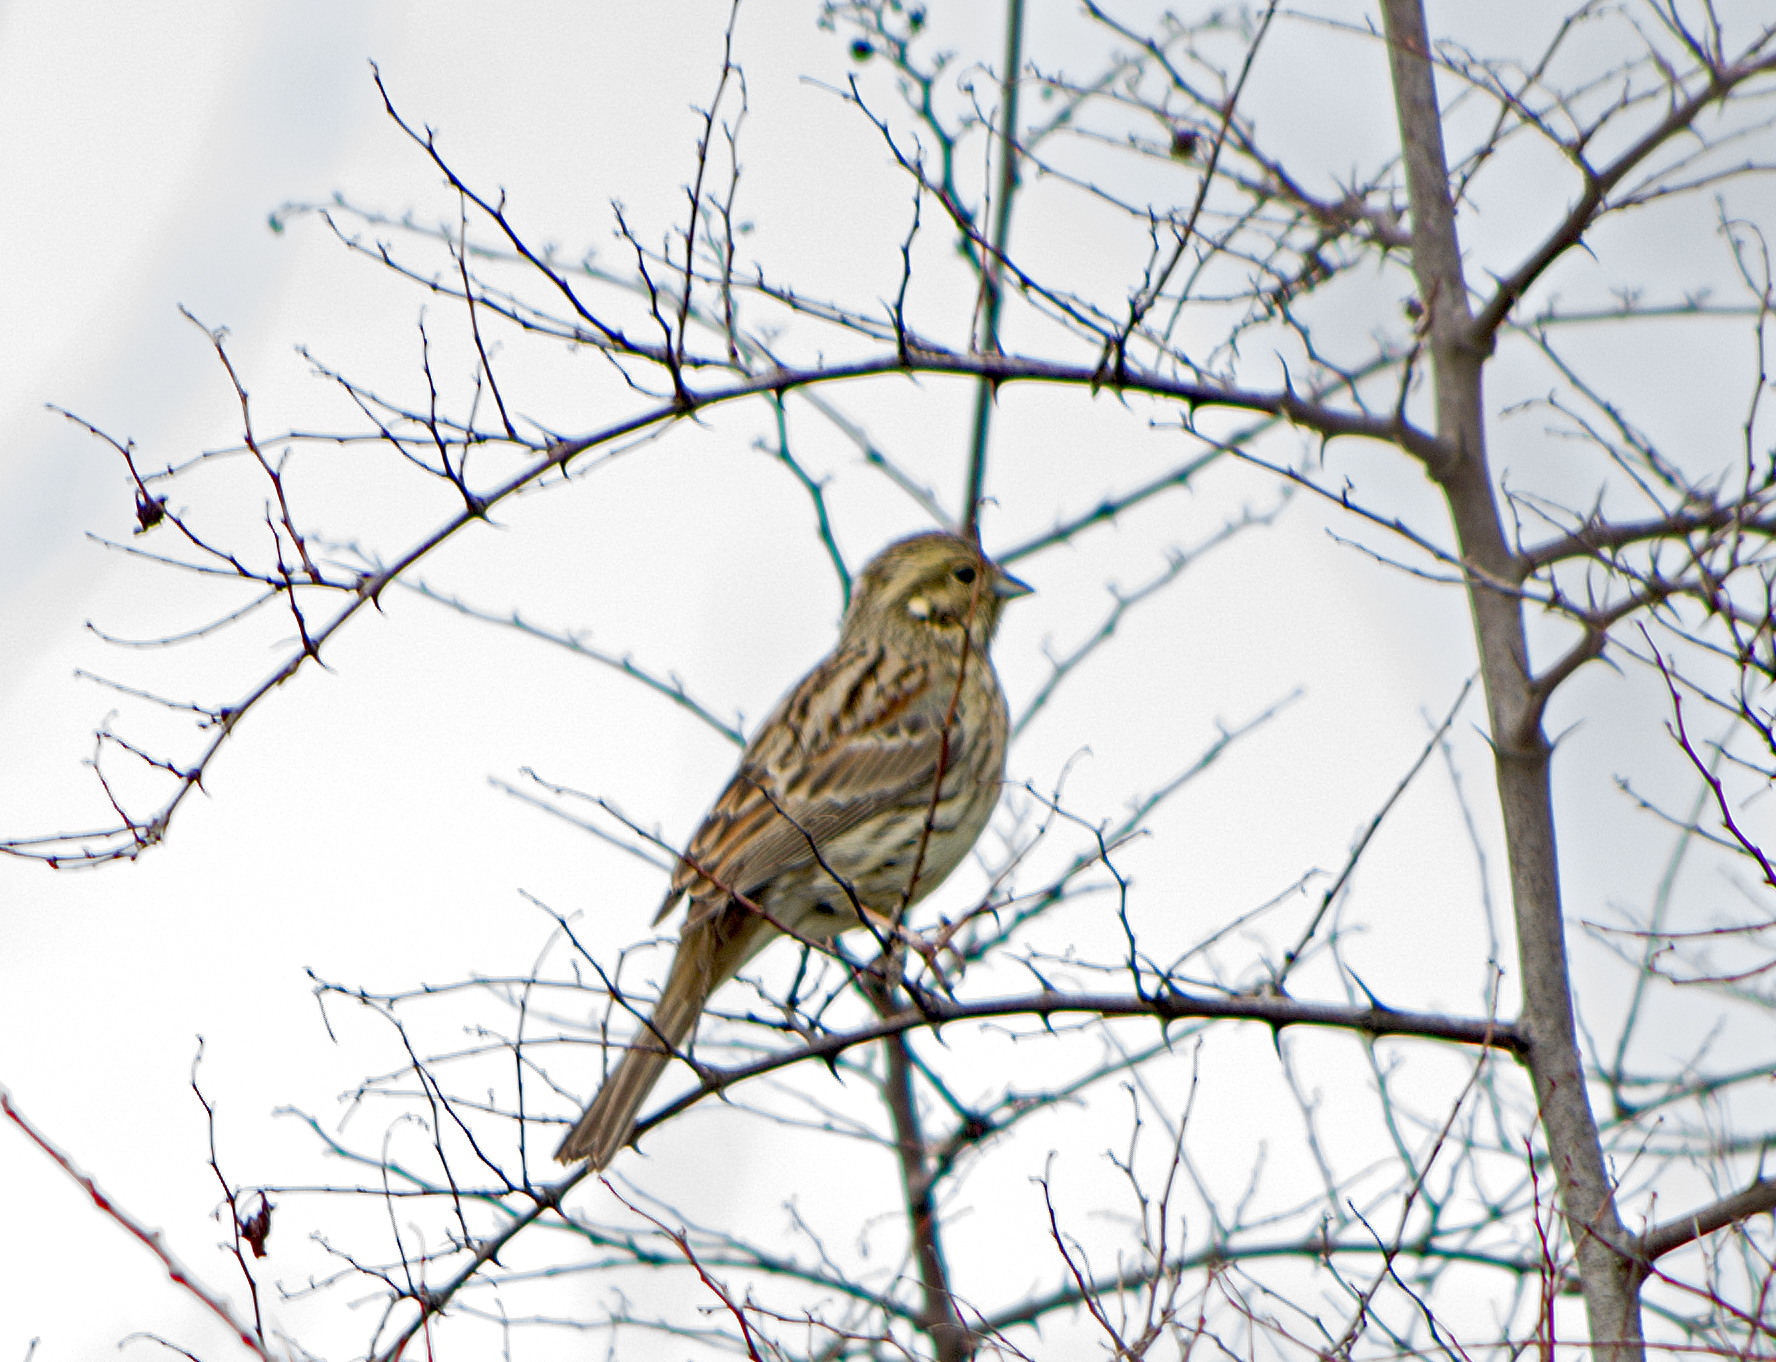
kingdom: Animalia
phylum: Chordata
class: Aves
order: Passeriformes
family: Emberizidae
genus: Emberiza
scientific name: Emberiza cirlus
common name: Cirl bunting
